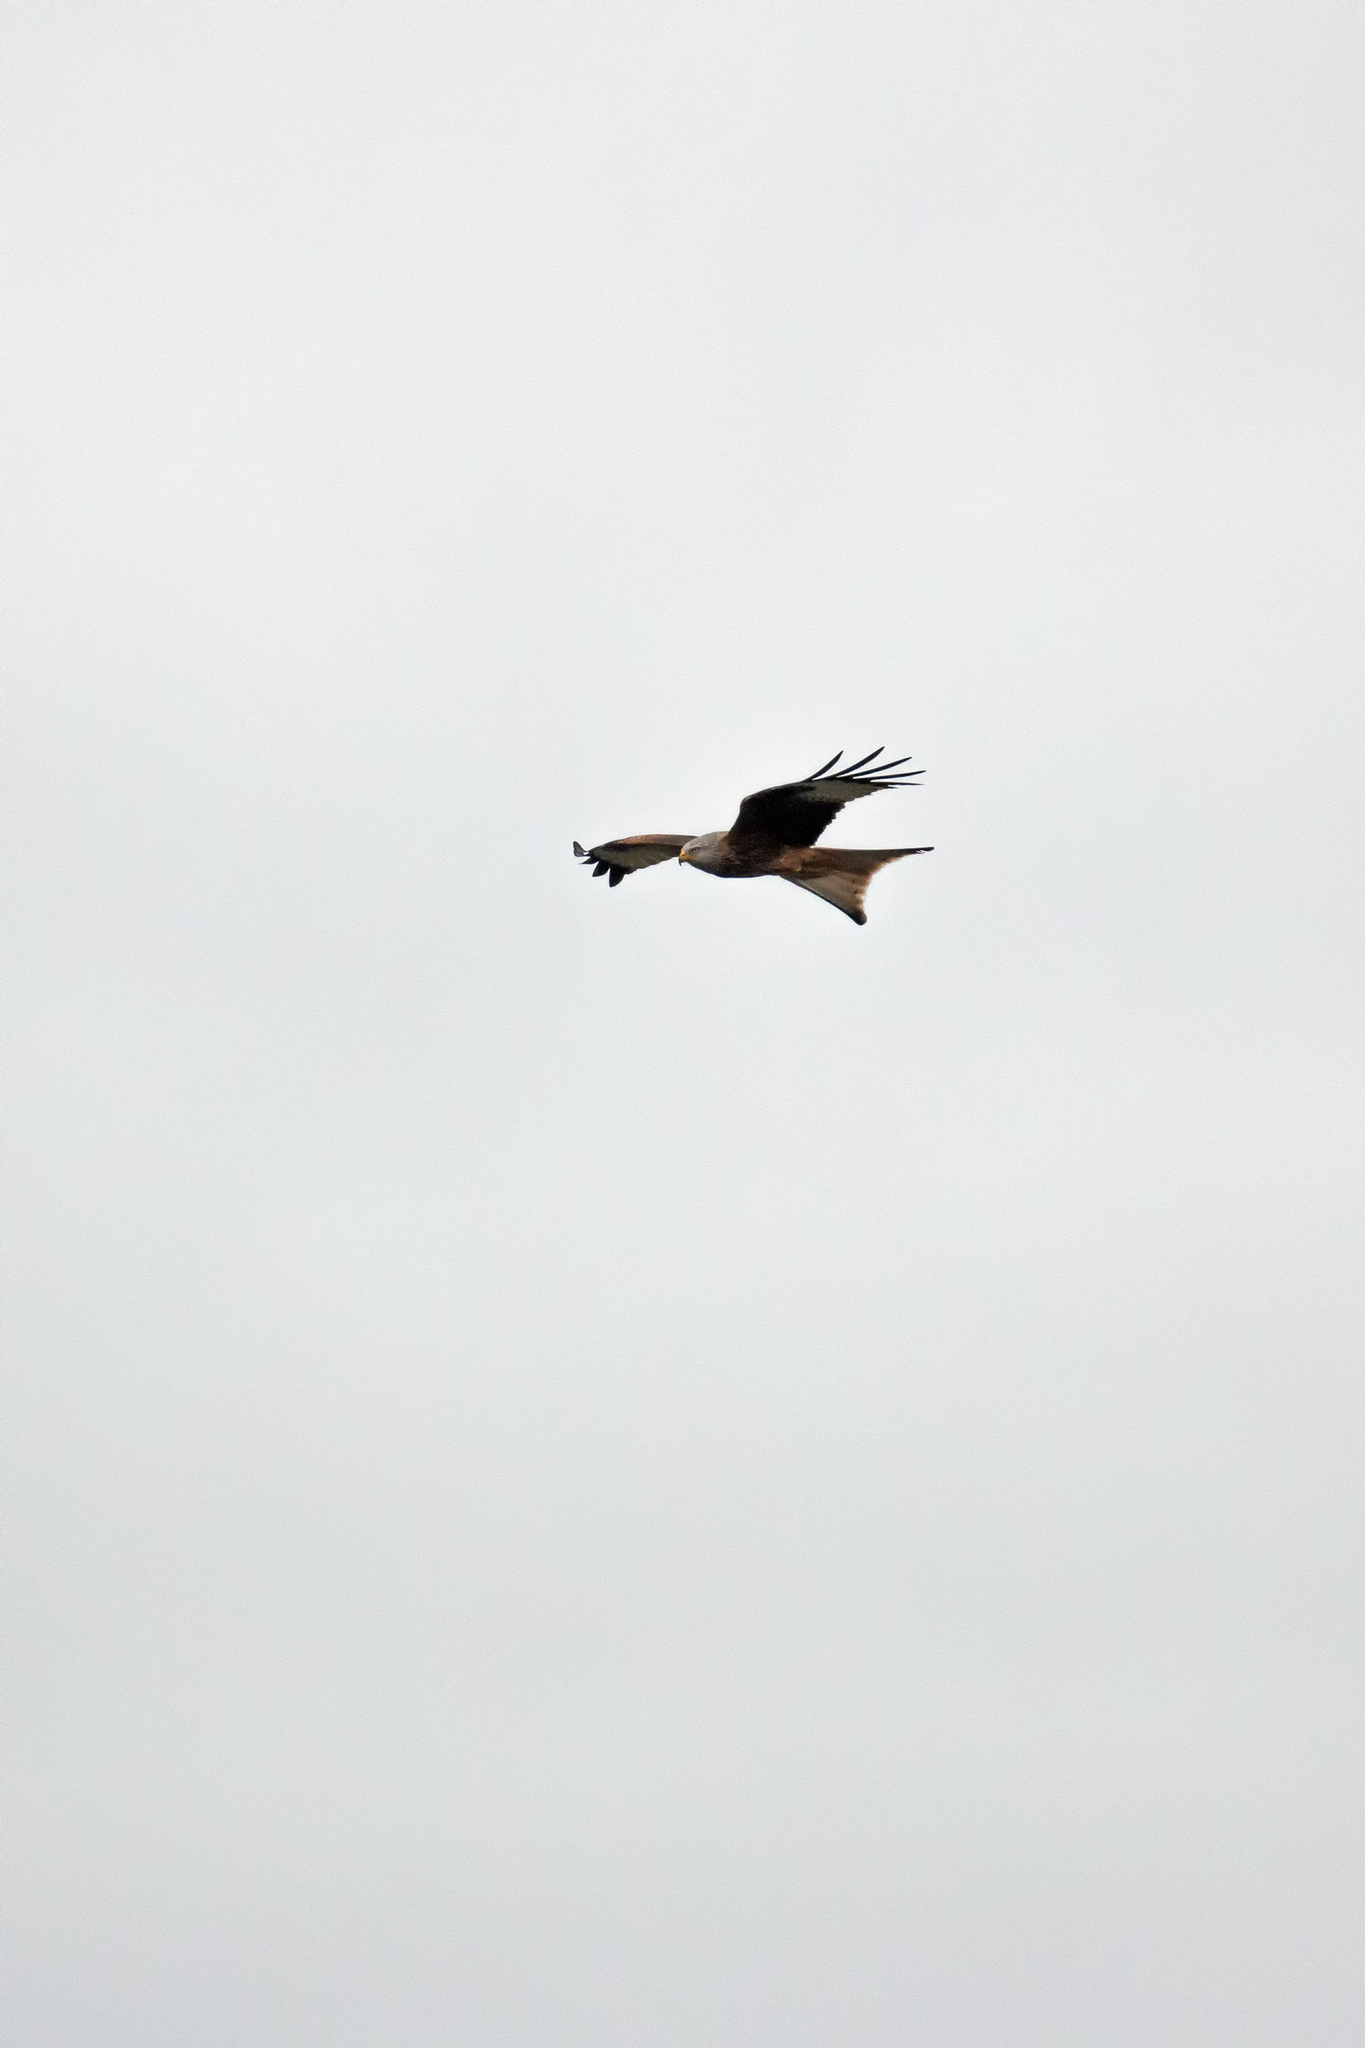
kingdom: Animalia
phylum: Chordata
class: Aves
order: Accipitriformes
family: Accipitridae
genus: Milvus
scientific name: Milvus milvus
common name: Red kite
